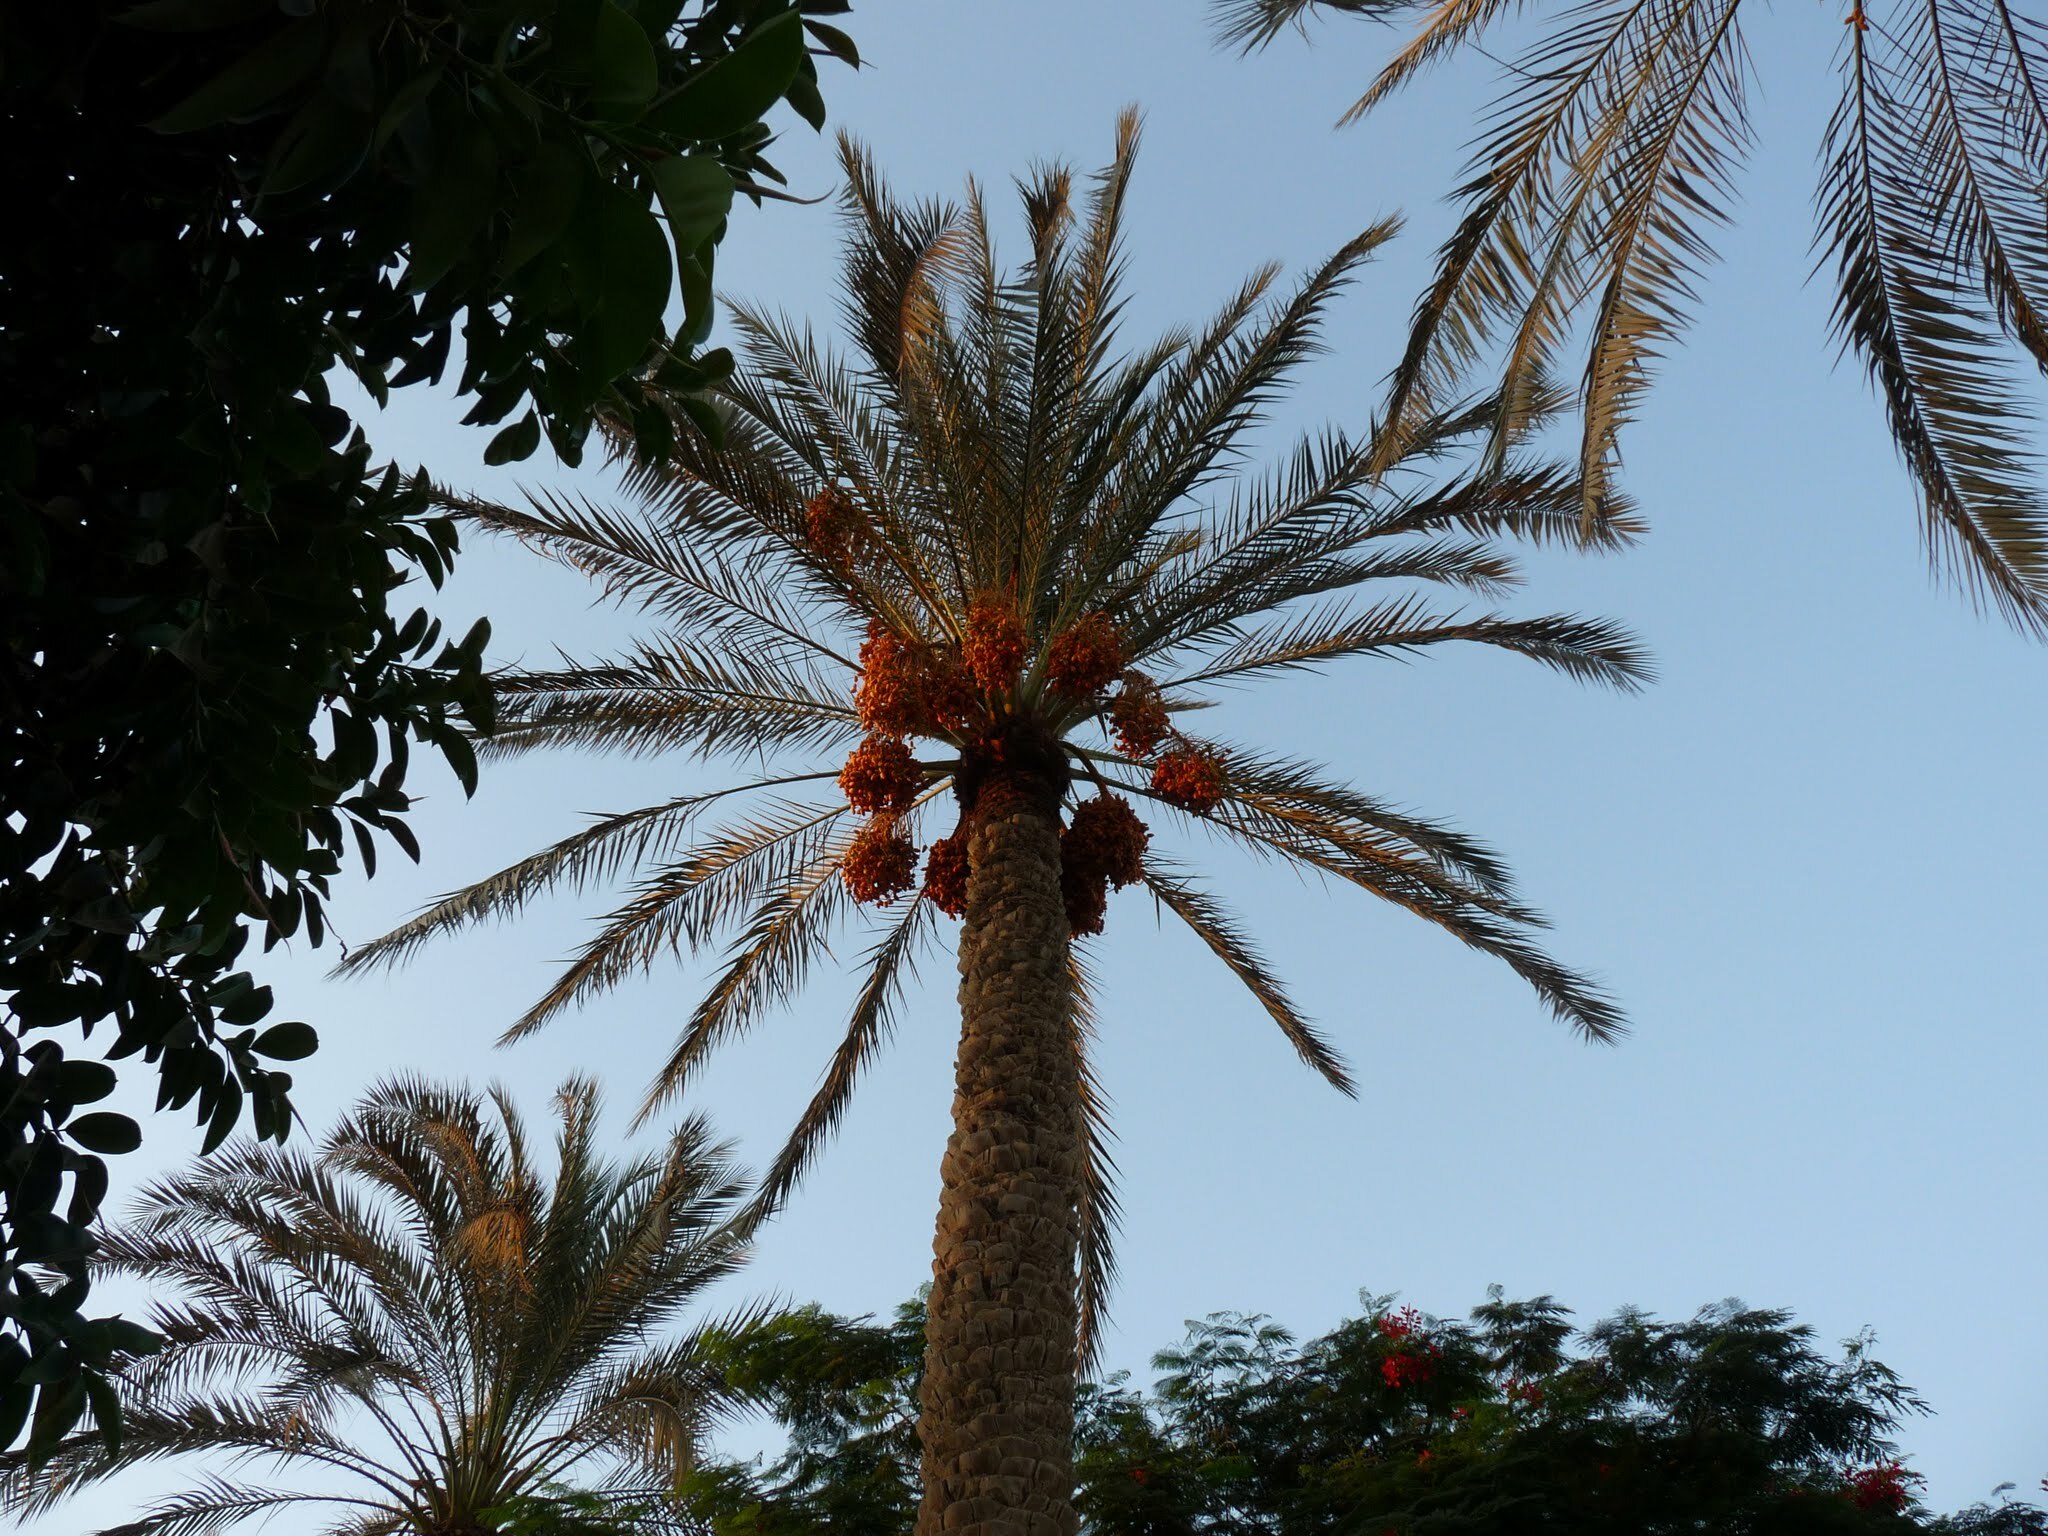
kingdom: Plantae
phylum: Tracheophyta
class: Liliopsida
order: Arecales
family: Arecaceae
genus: Phoenix
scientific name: Phoenix dactylifera
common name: Date palm
